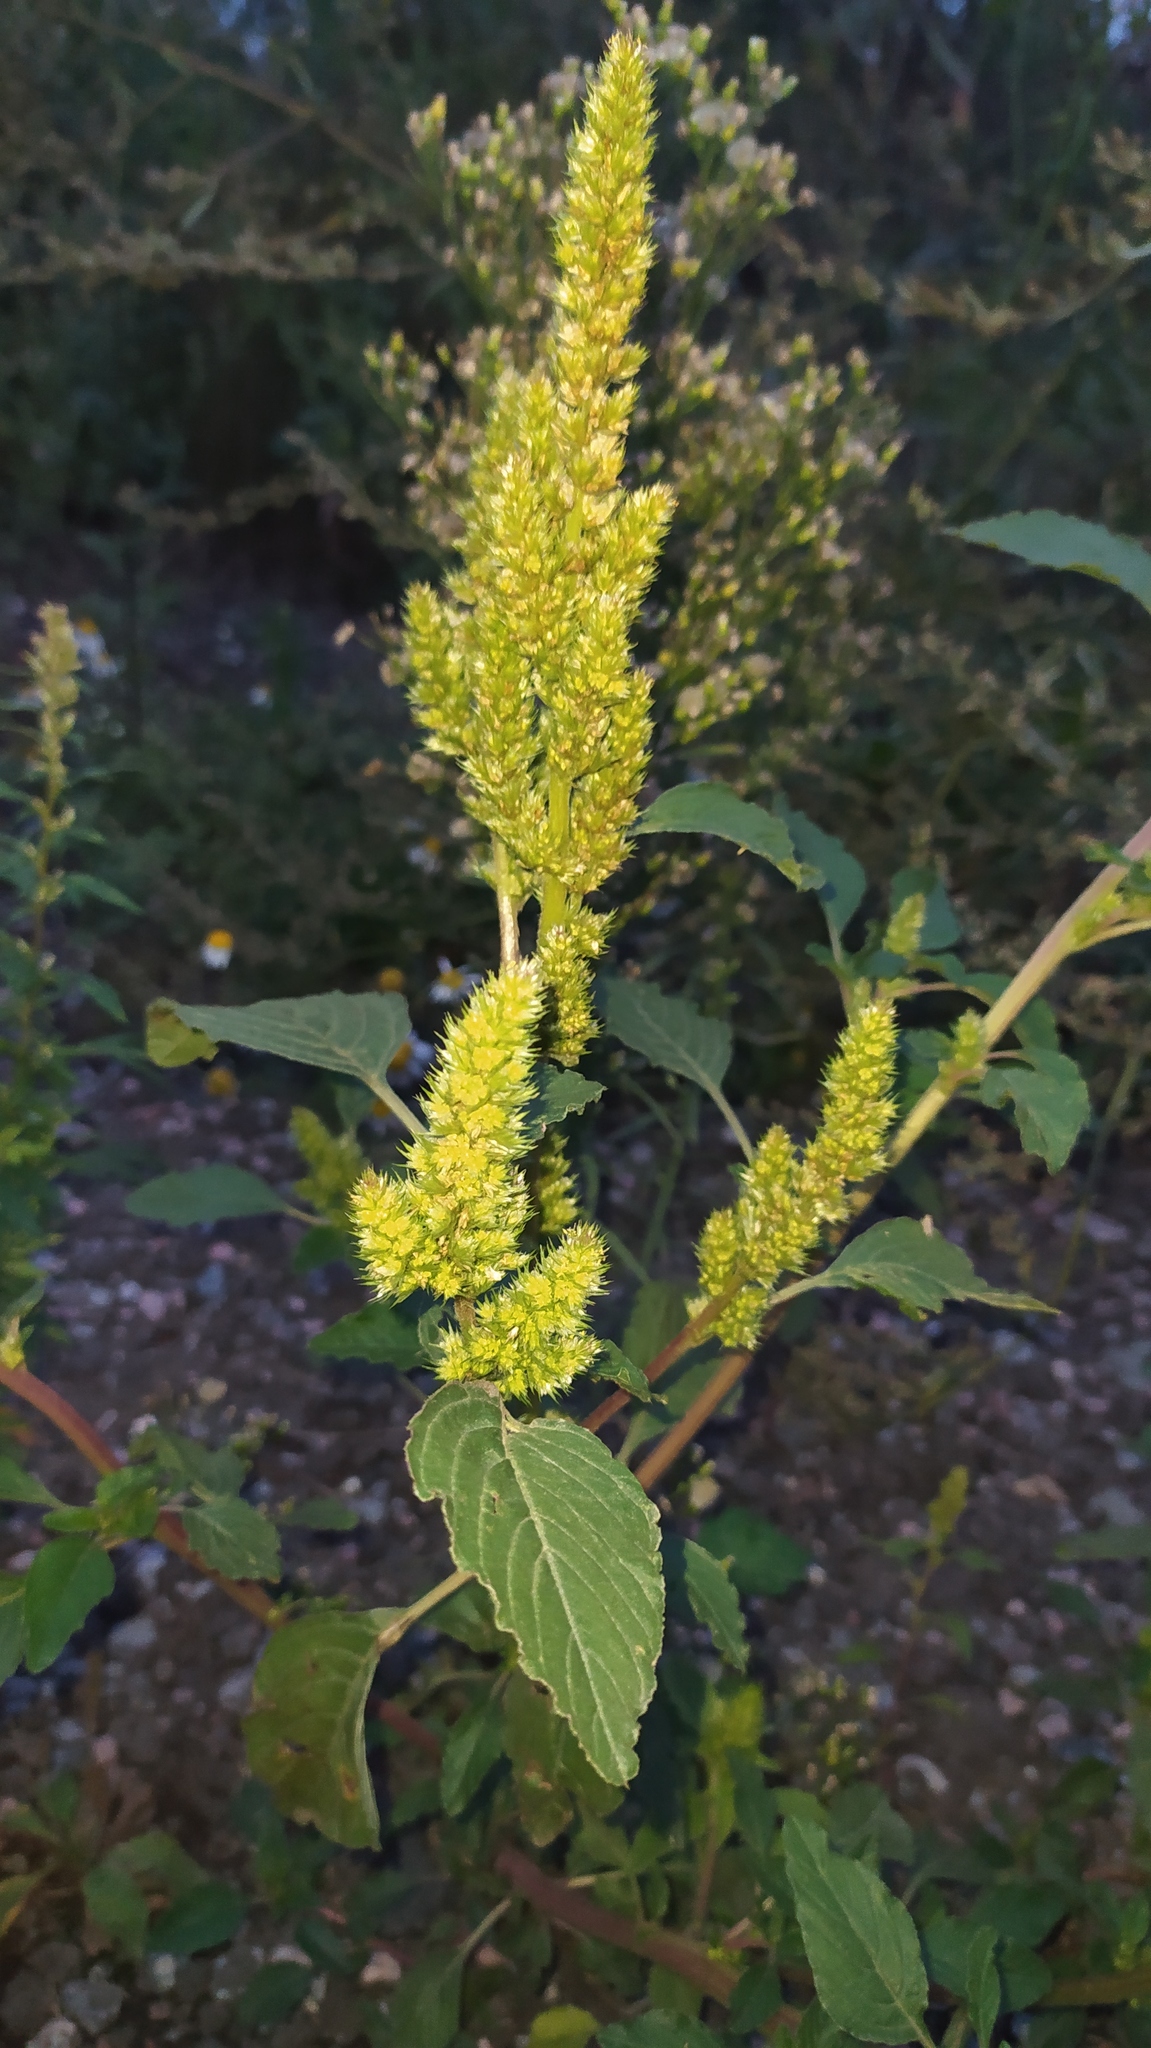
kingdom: Plantae
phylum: Tracheophyta
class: Magnoliopsida
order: Caryophyllales
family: Amaranthaceae
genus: Amaranthus
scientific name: Amaranthus retroflexus
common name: Redroot amaranth
